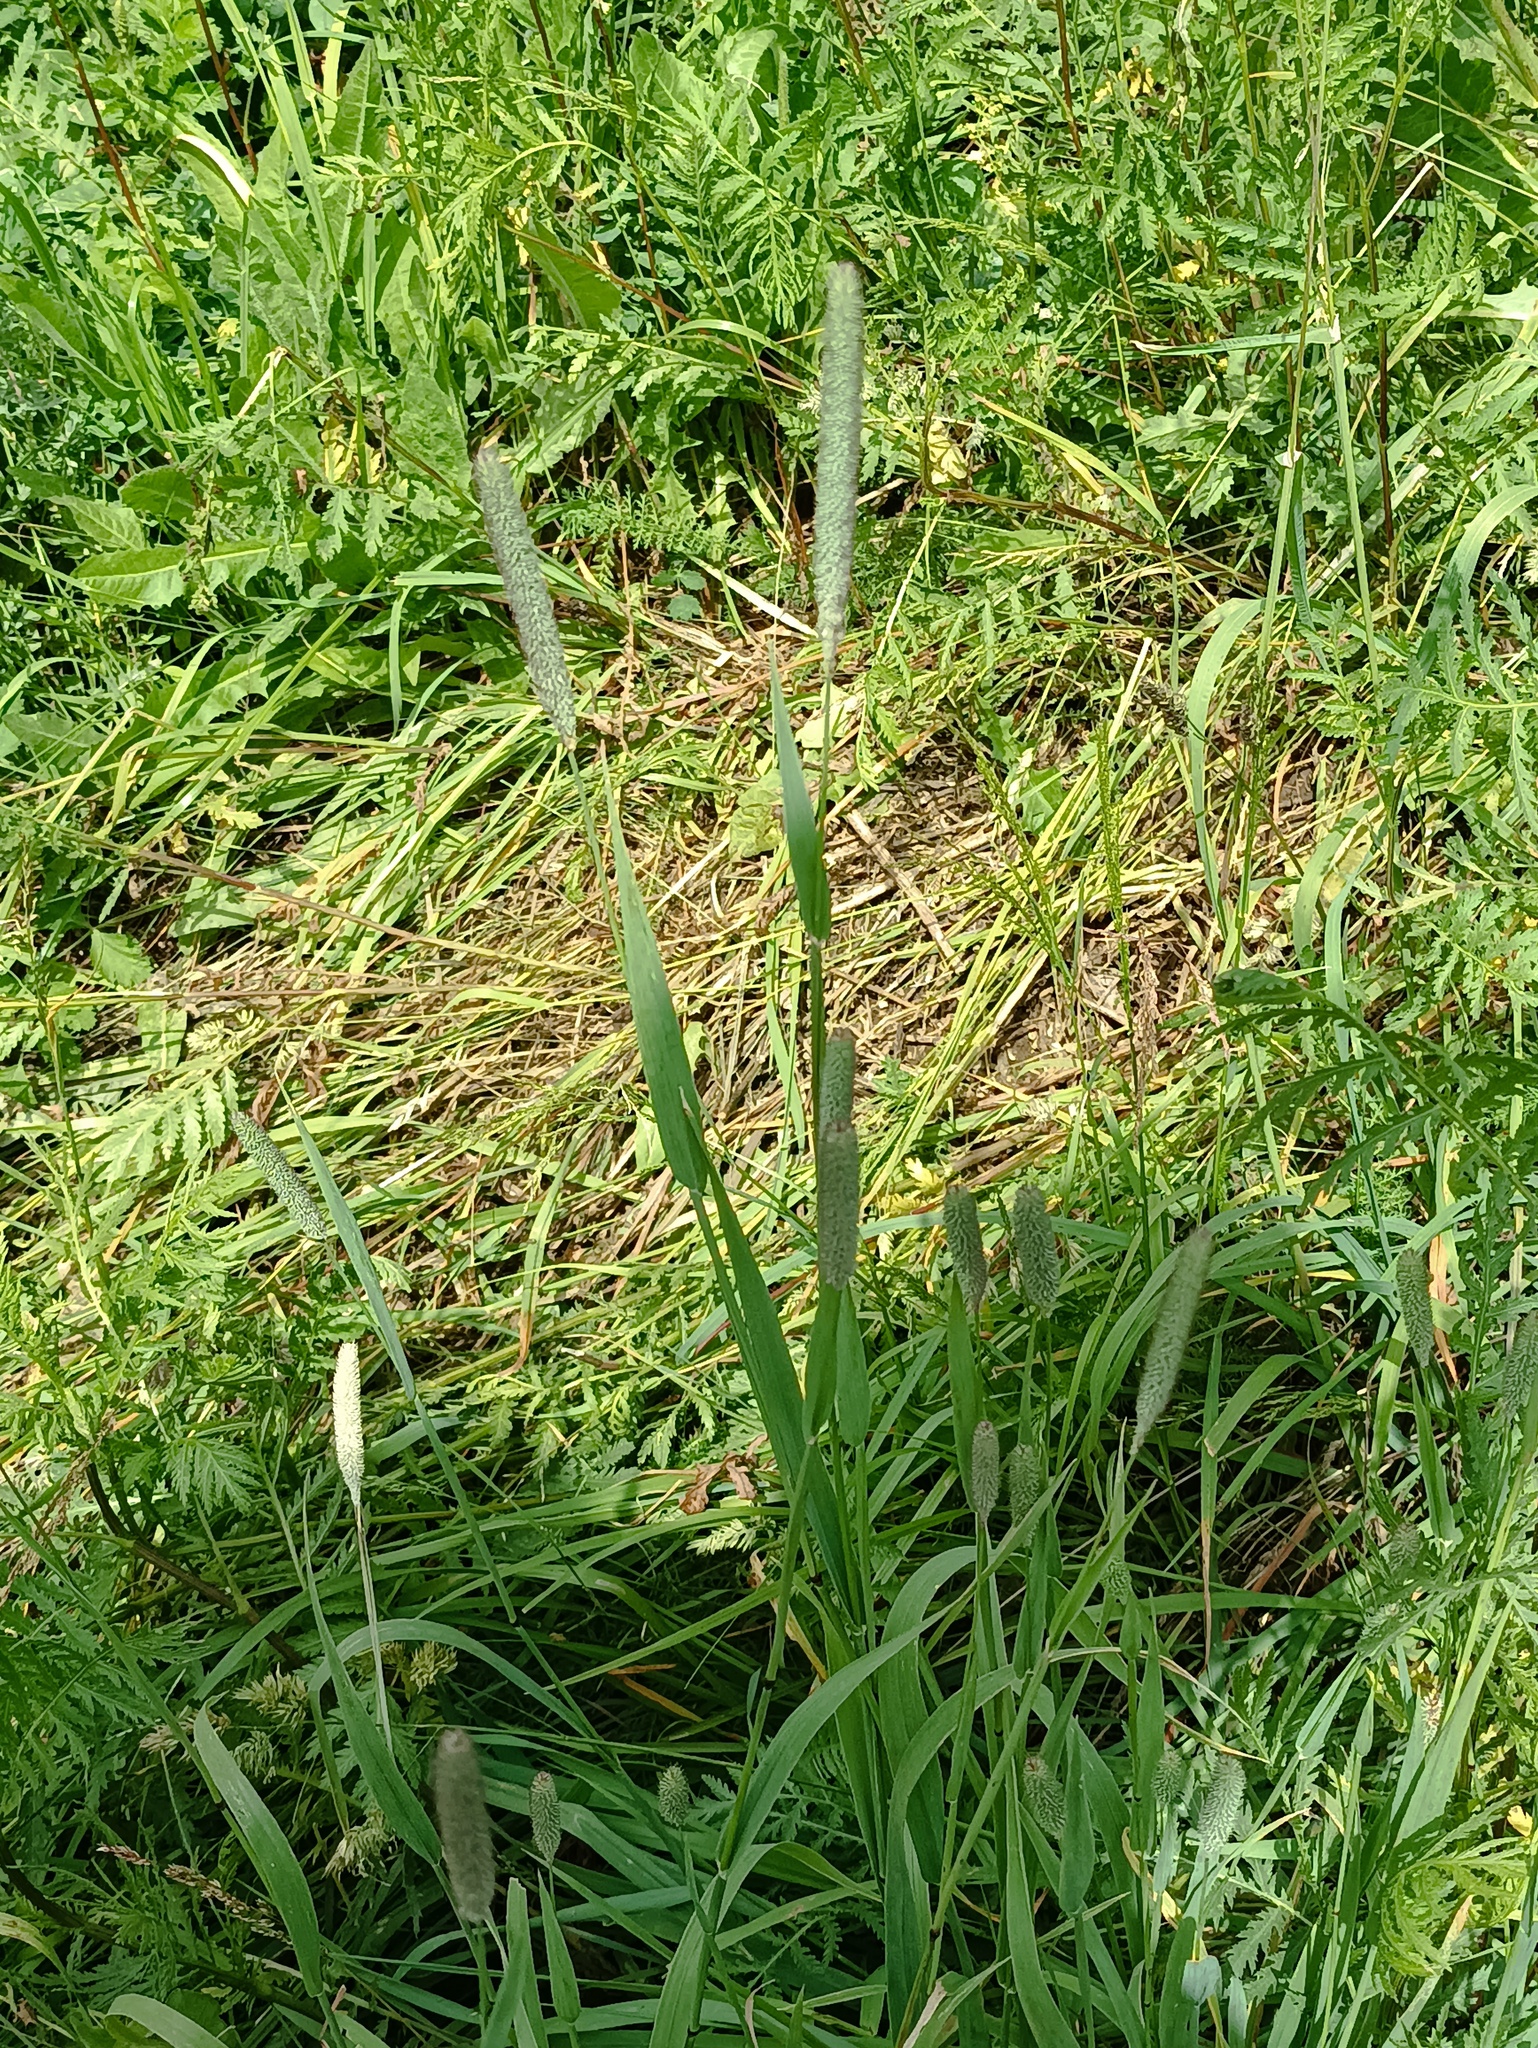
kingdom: Plantae
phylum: Tracheophyta
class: Liliopsida
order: Poales
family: Poaceae
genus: Phleum
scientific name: Phleum pratense
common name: Timothy grass
